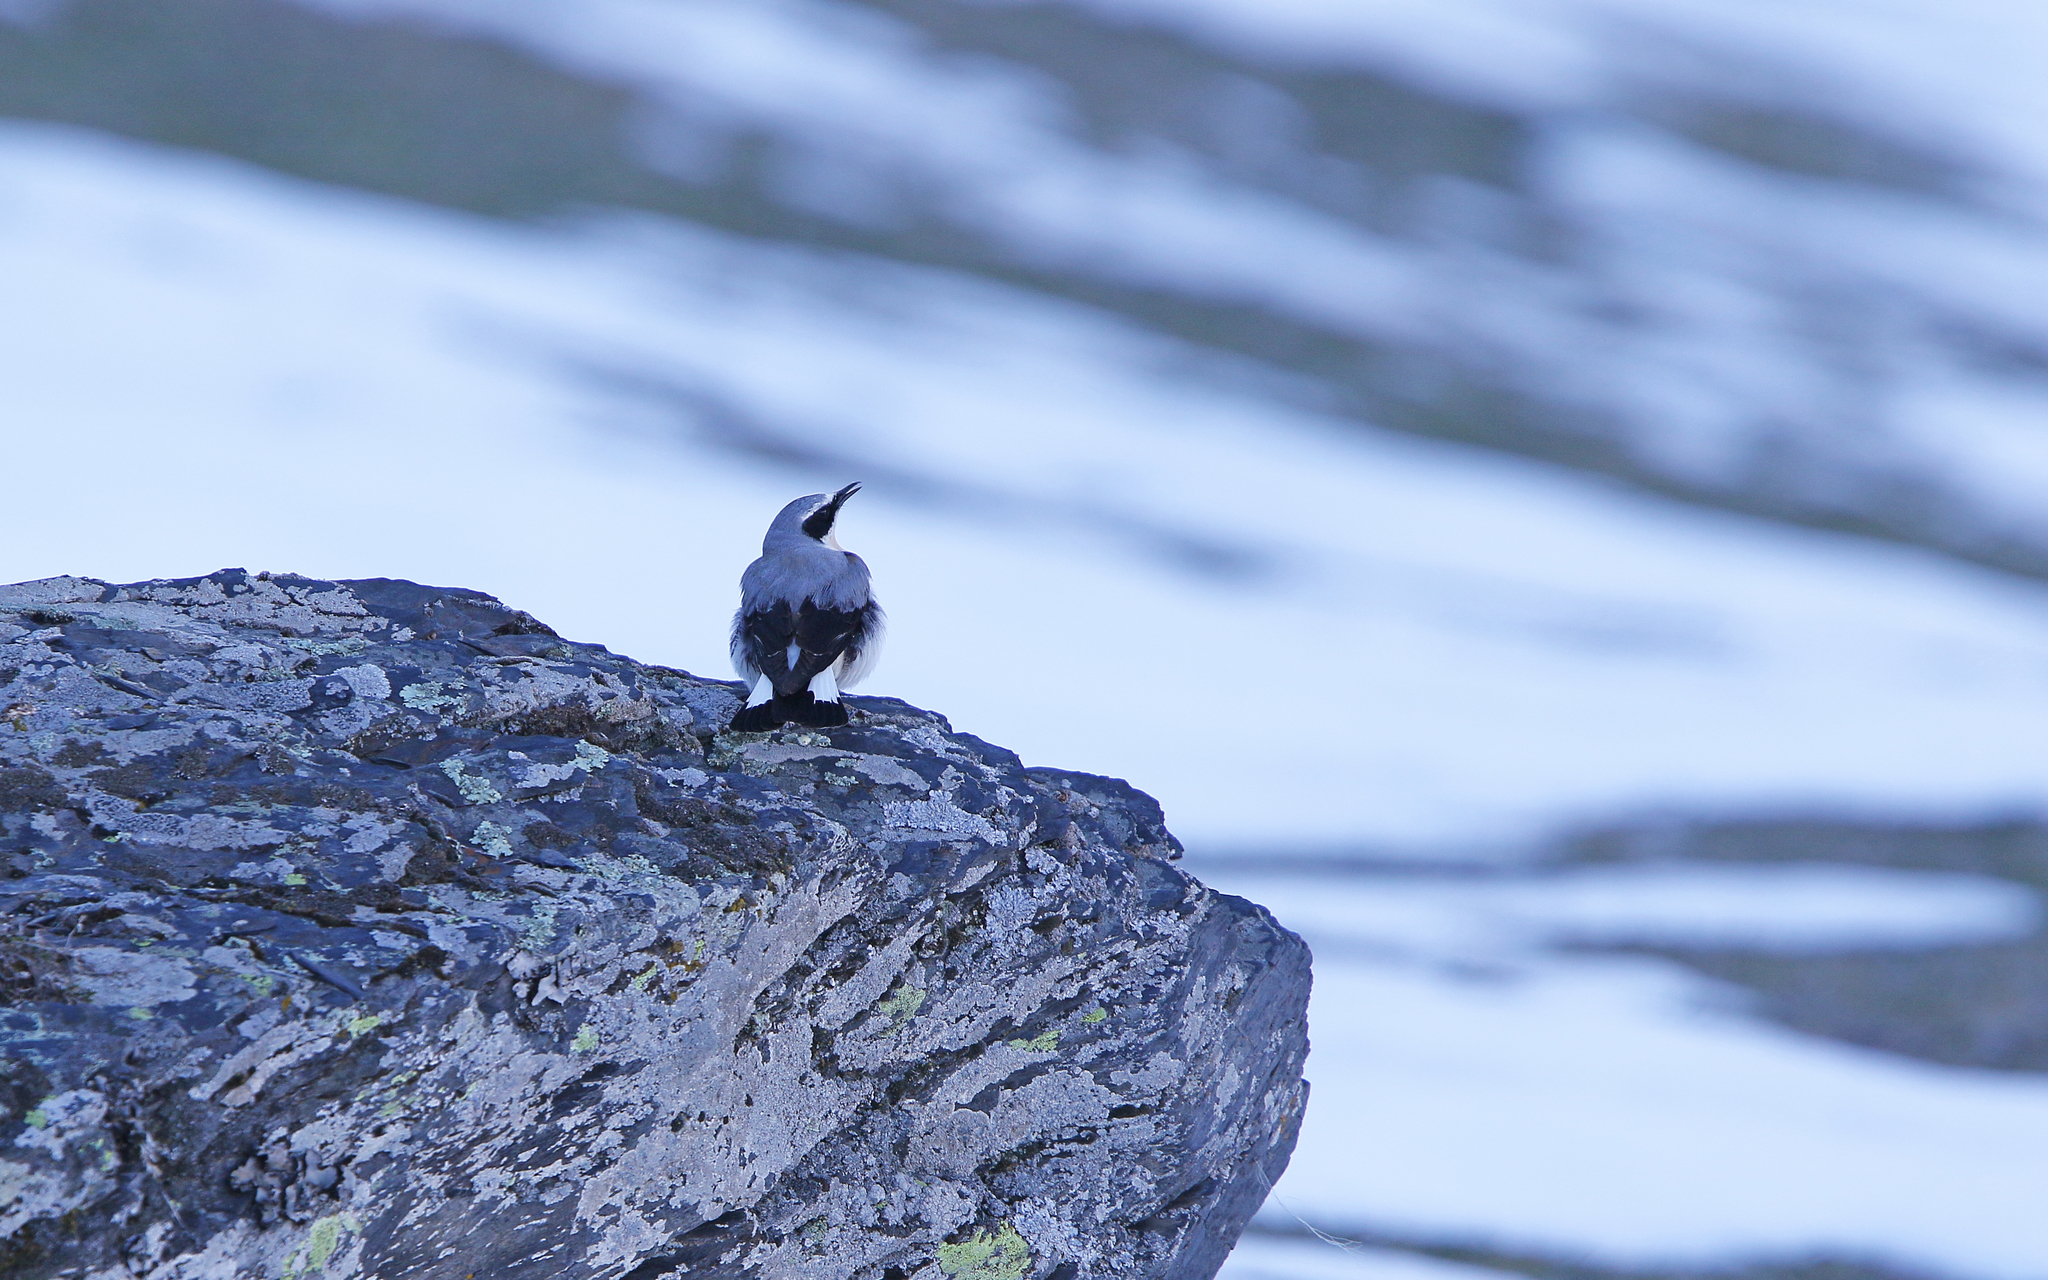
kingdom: Animalia
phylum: Chordata
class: Aves
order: Passeriformes
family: Muscicapidae
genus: Oenanthe
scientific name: Oenanthe oenanthe
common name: Northern wheatear
